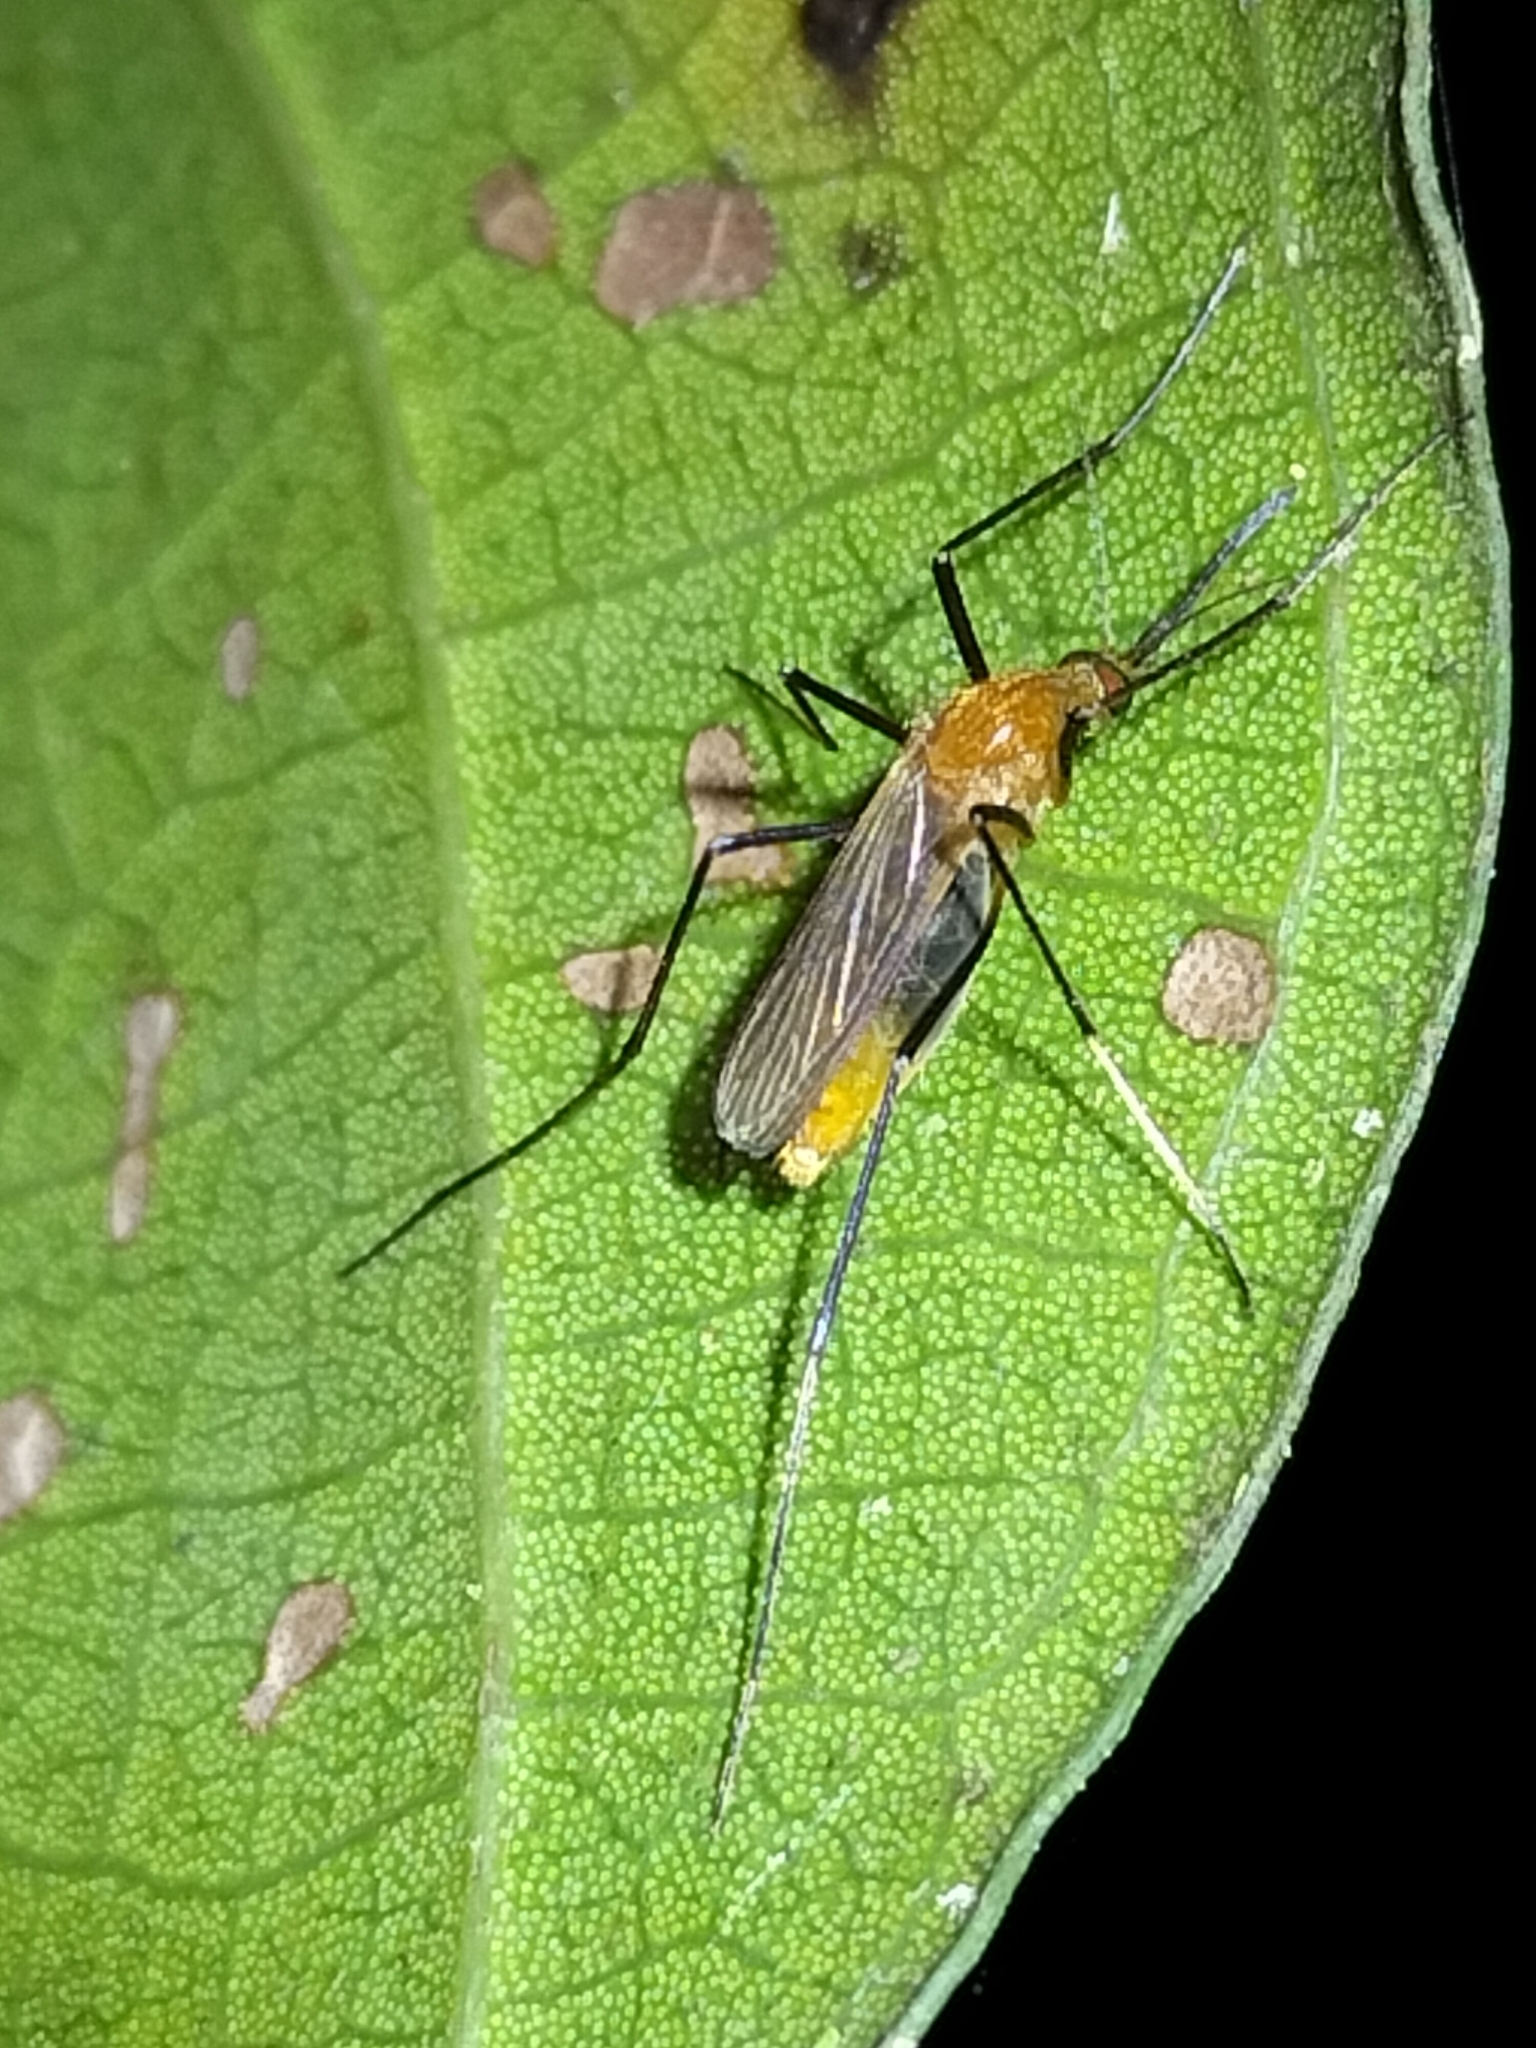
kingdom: Animalia
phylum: Arthropoda
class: Insecta
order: Diptera
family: Culicidae
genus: Coquillettidia
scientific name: Coquillettidia xanthogaster
